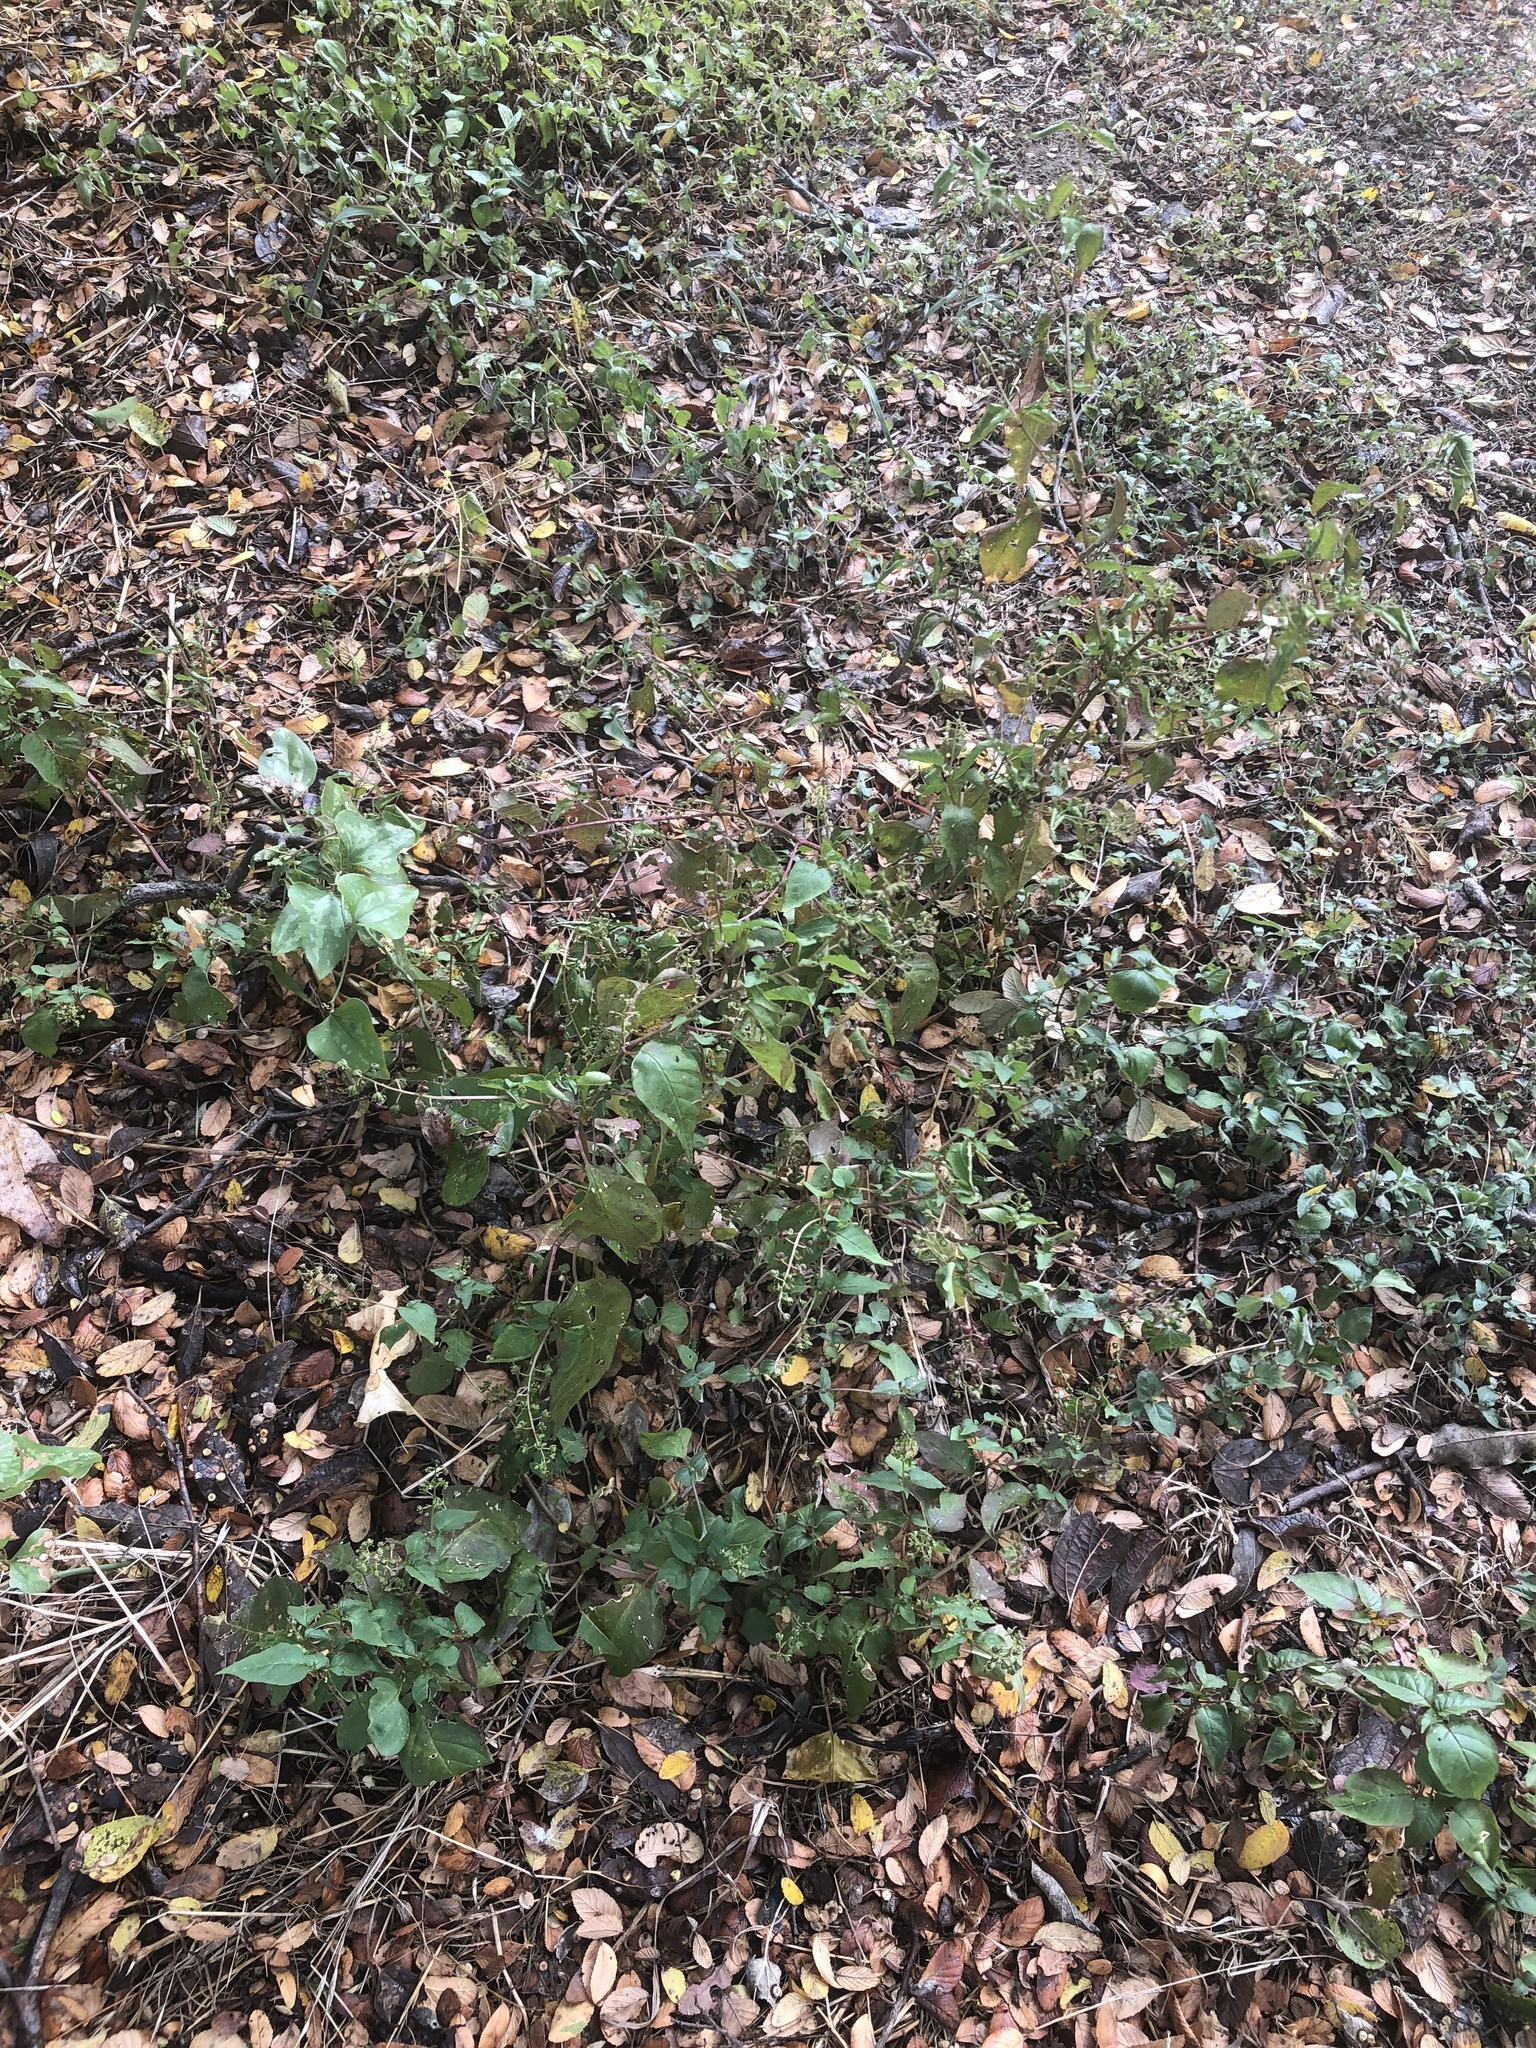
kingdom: Plantae
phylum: Tracheophyta
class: Magnoliopsida
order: Caryophyllales
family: Phytolaccaceae
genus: Rivina
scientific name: Rivina humilis
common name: Rougeplant
